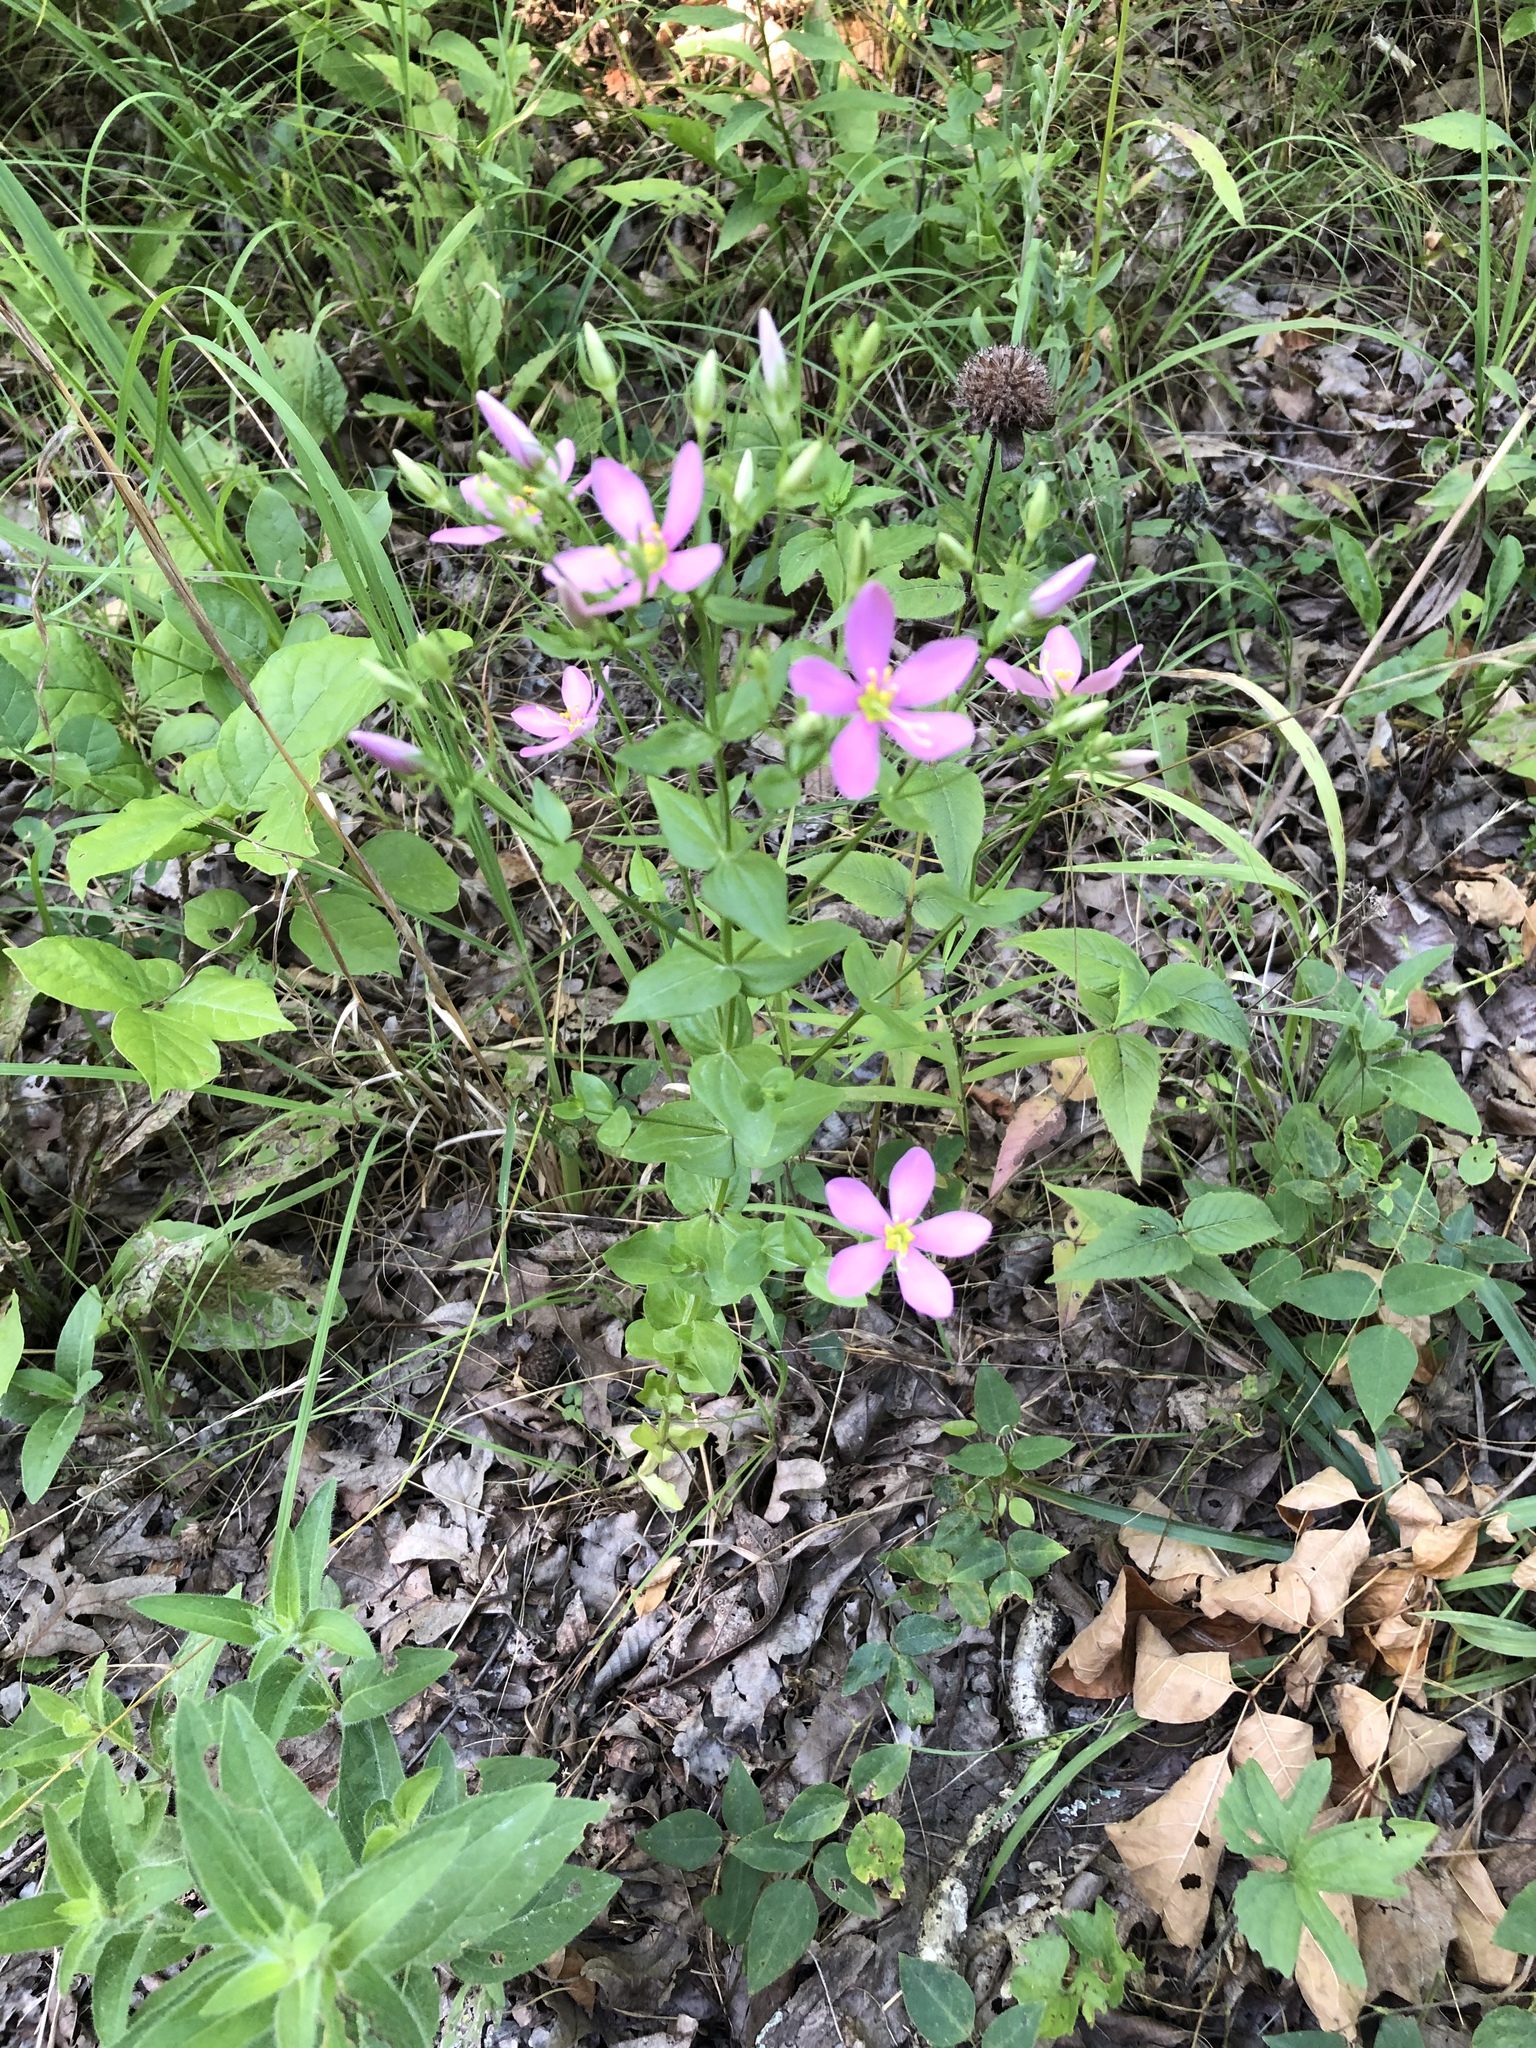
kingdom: Plantae
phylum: Tracheophyta
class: Magnoliopsida
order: Gentianales
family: Gentianaceae
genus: Sabatia
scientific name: Sabatia angularis
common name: Rose-pink
